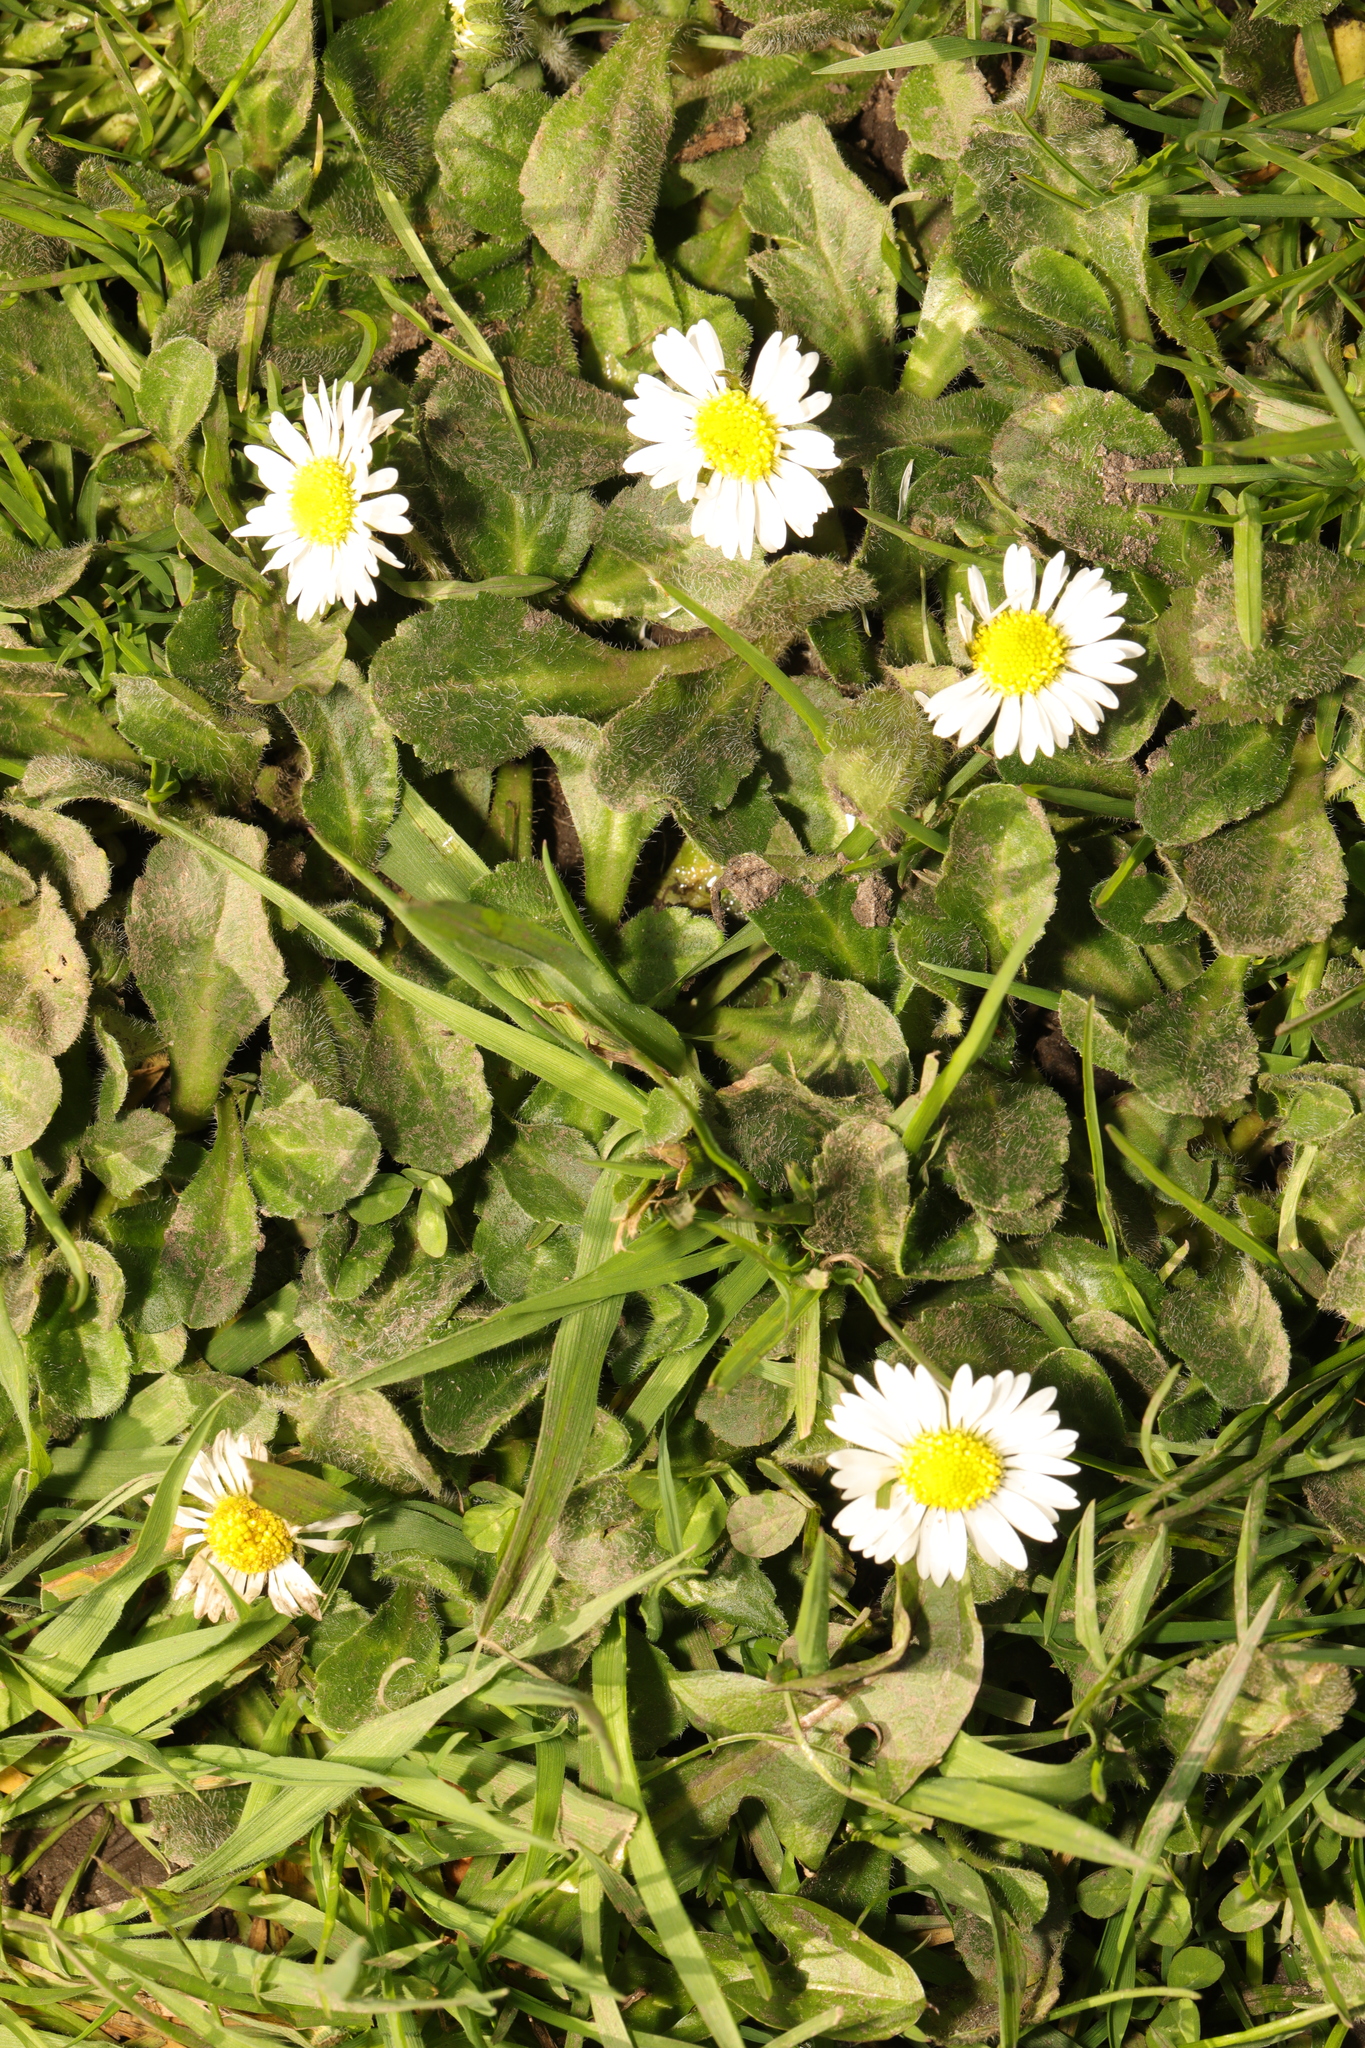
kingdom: Plantae
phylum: Tracheophyta
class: Magnoliopsida
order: Asterales
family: Asteraceae
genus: Bellis
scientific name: Bellis perennis
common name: Lawndaisy
